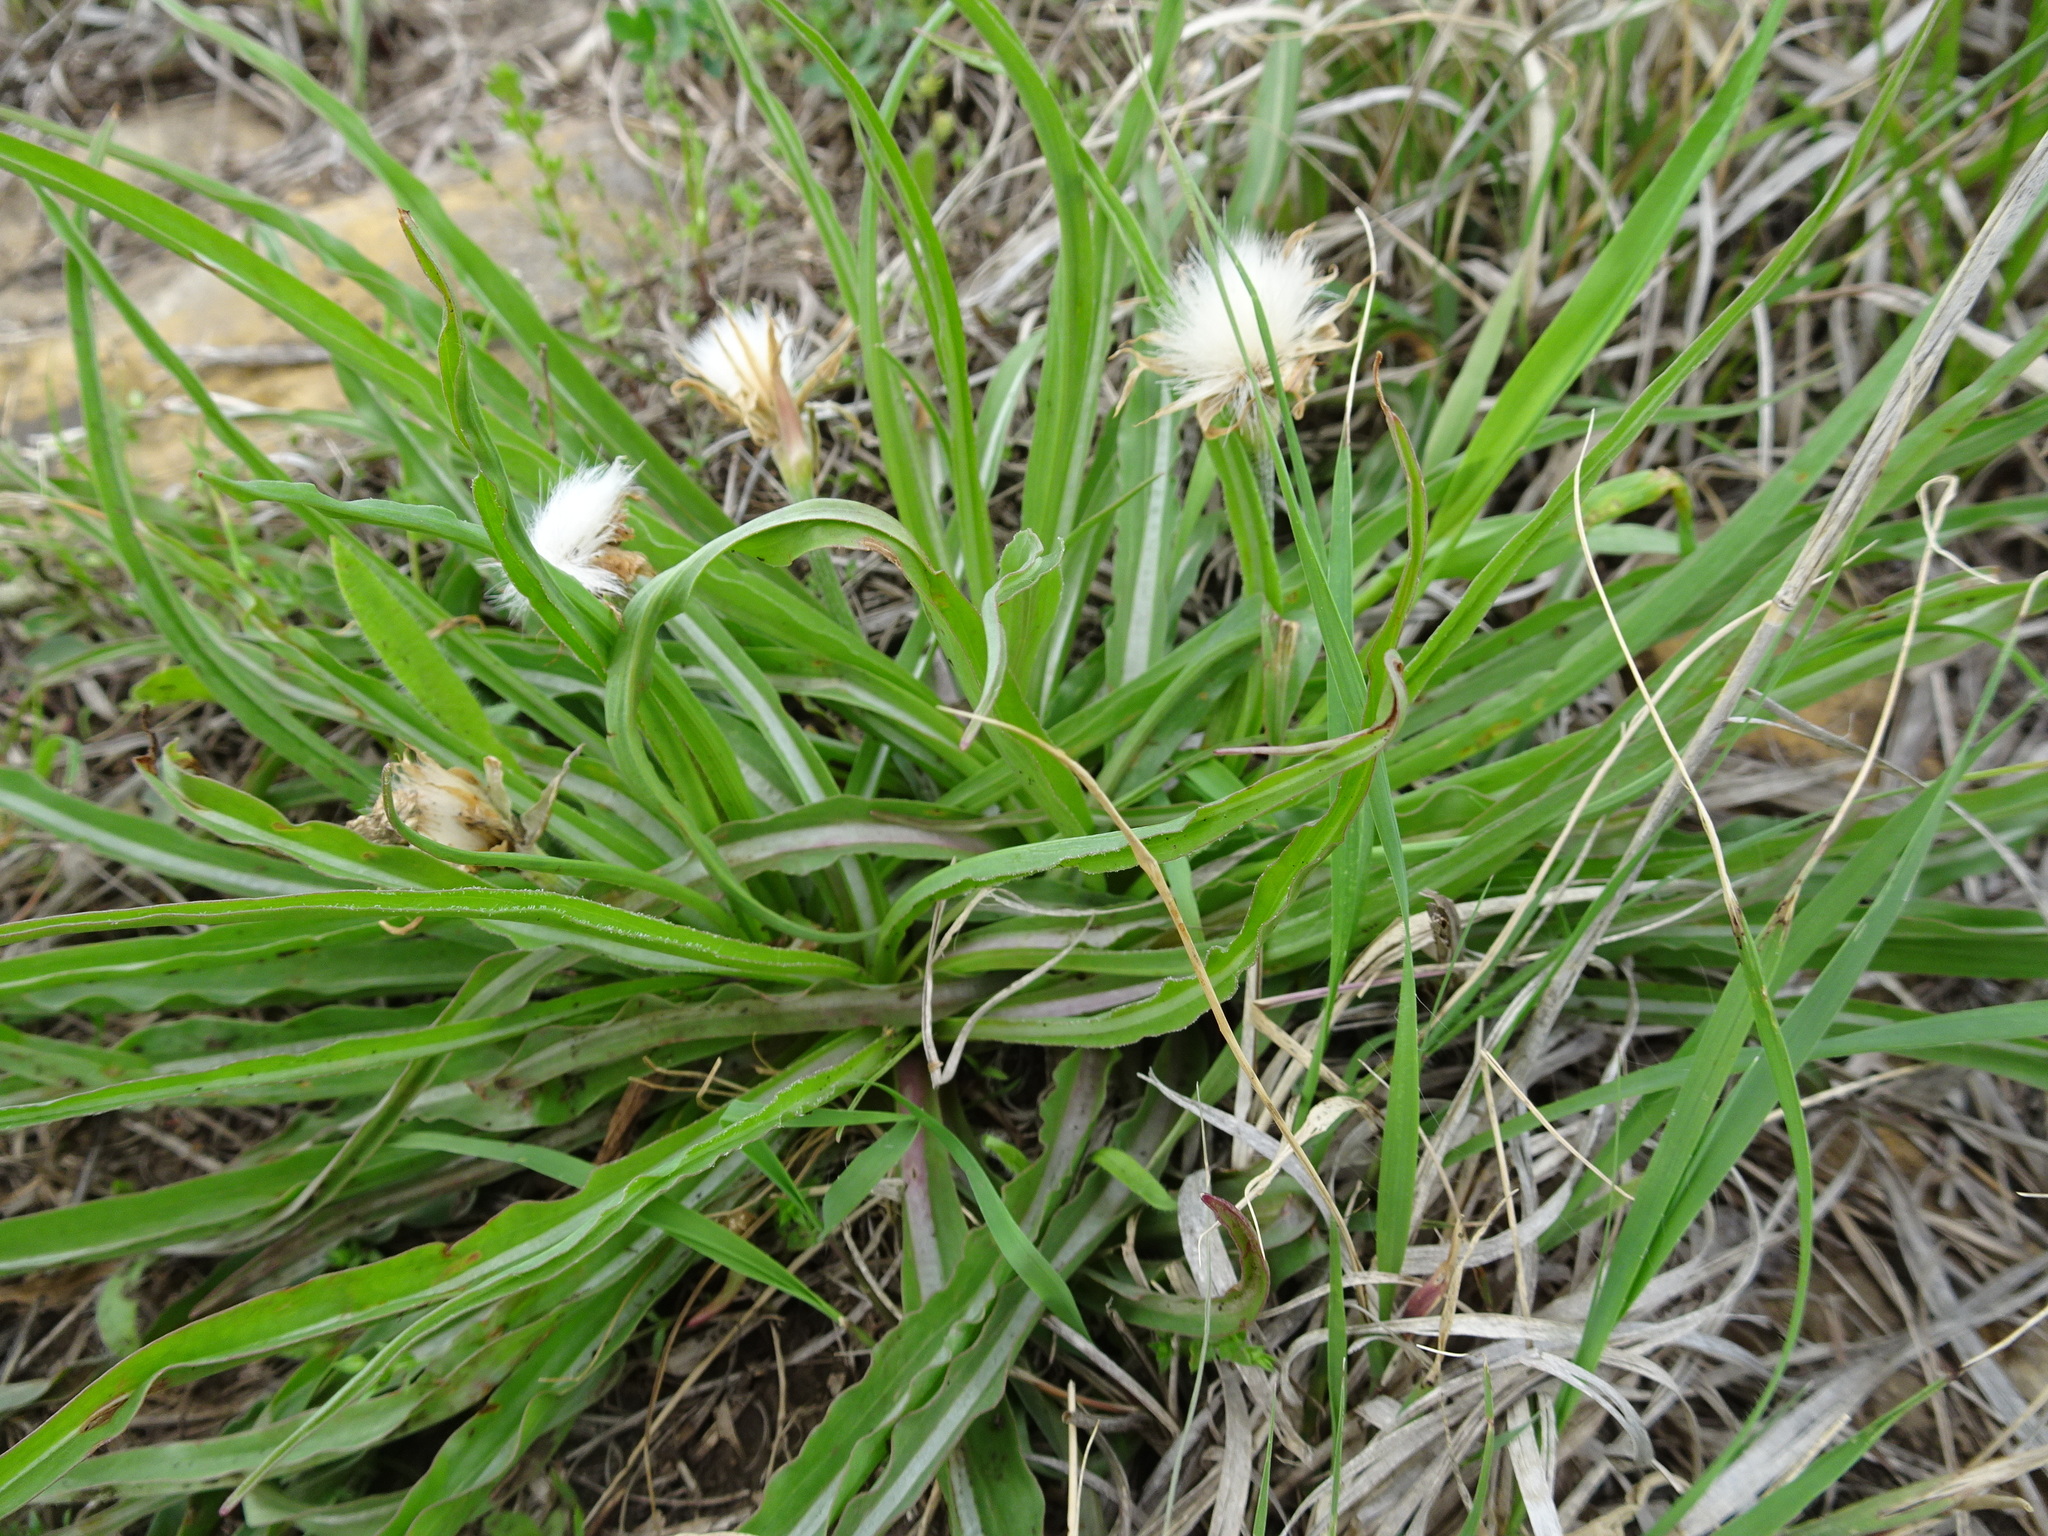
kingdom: Plantae
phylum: Tracheophyta
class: Magnoliopsida
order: Asterales
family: Asteraceae
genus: Microseris
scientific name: Microseris cuspidata
